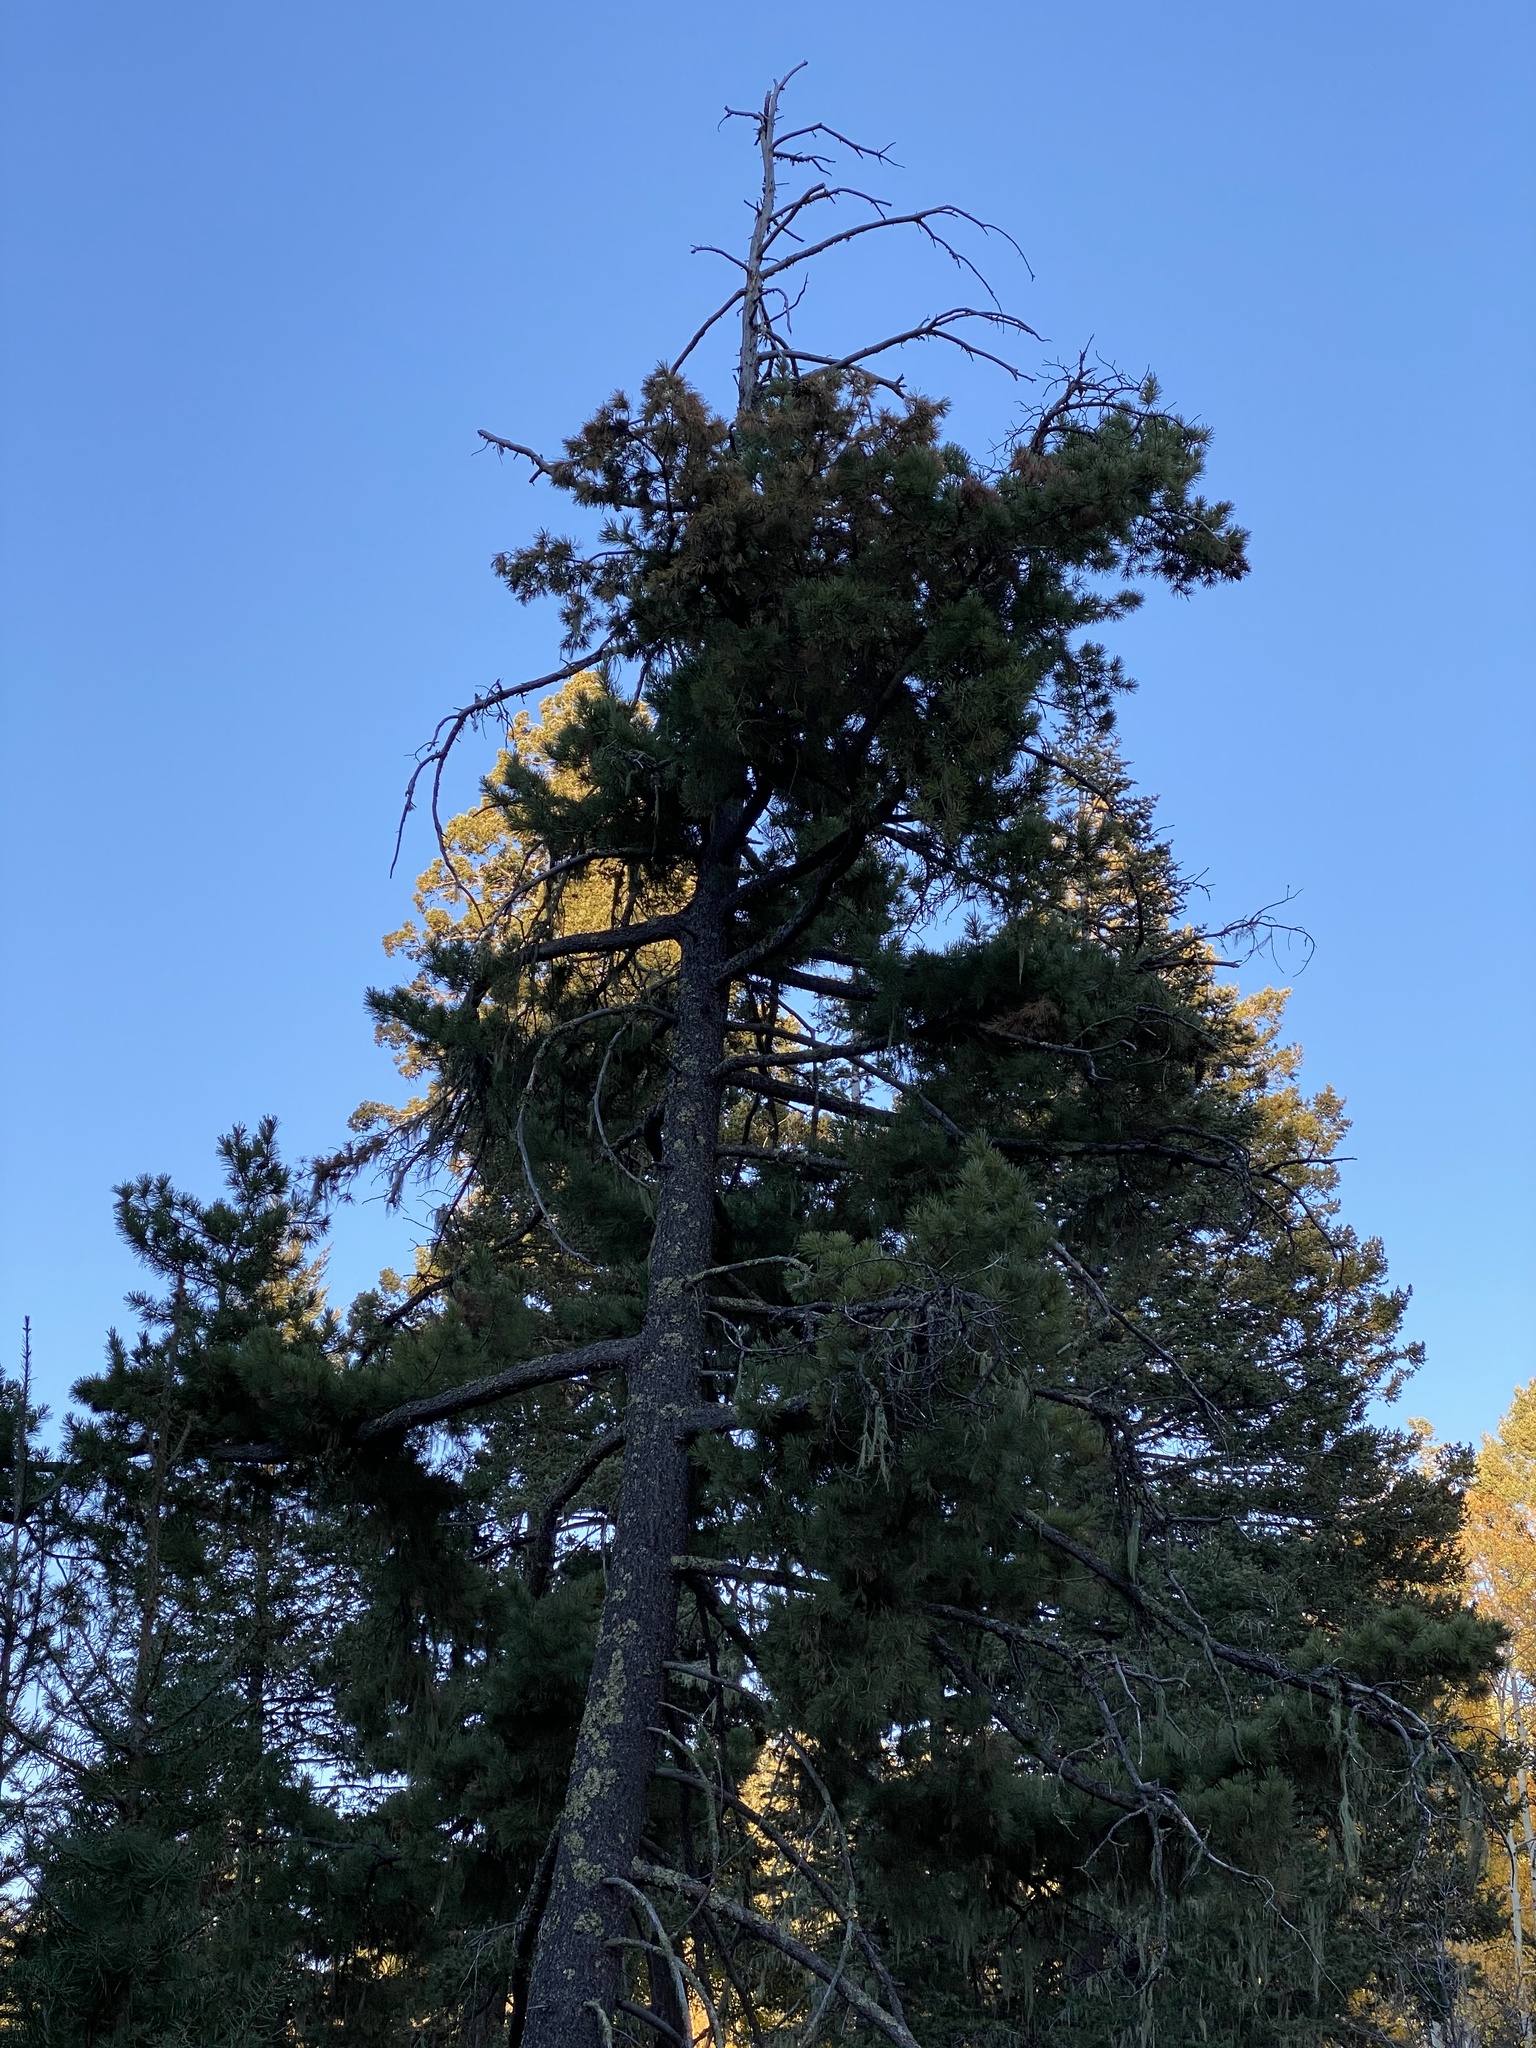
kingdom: Plantae
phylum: Tracheophyta
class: Pinopsida
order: Pinales
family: Pinaceae
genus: Pinus
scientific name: Pinus strobiformis
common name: Southwestern white pine
